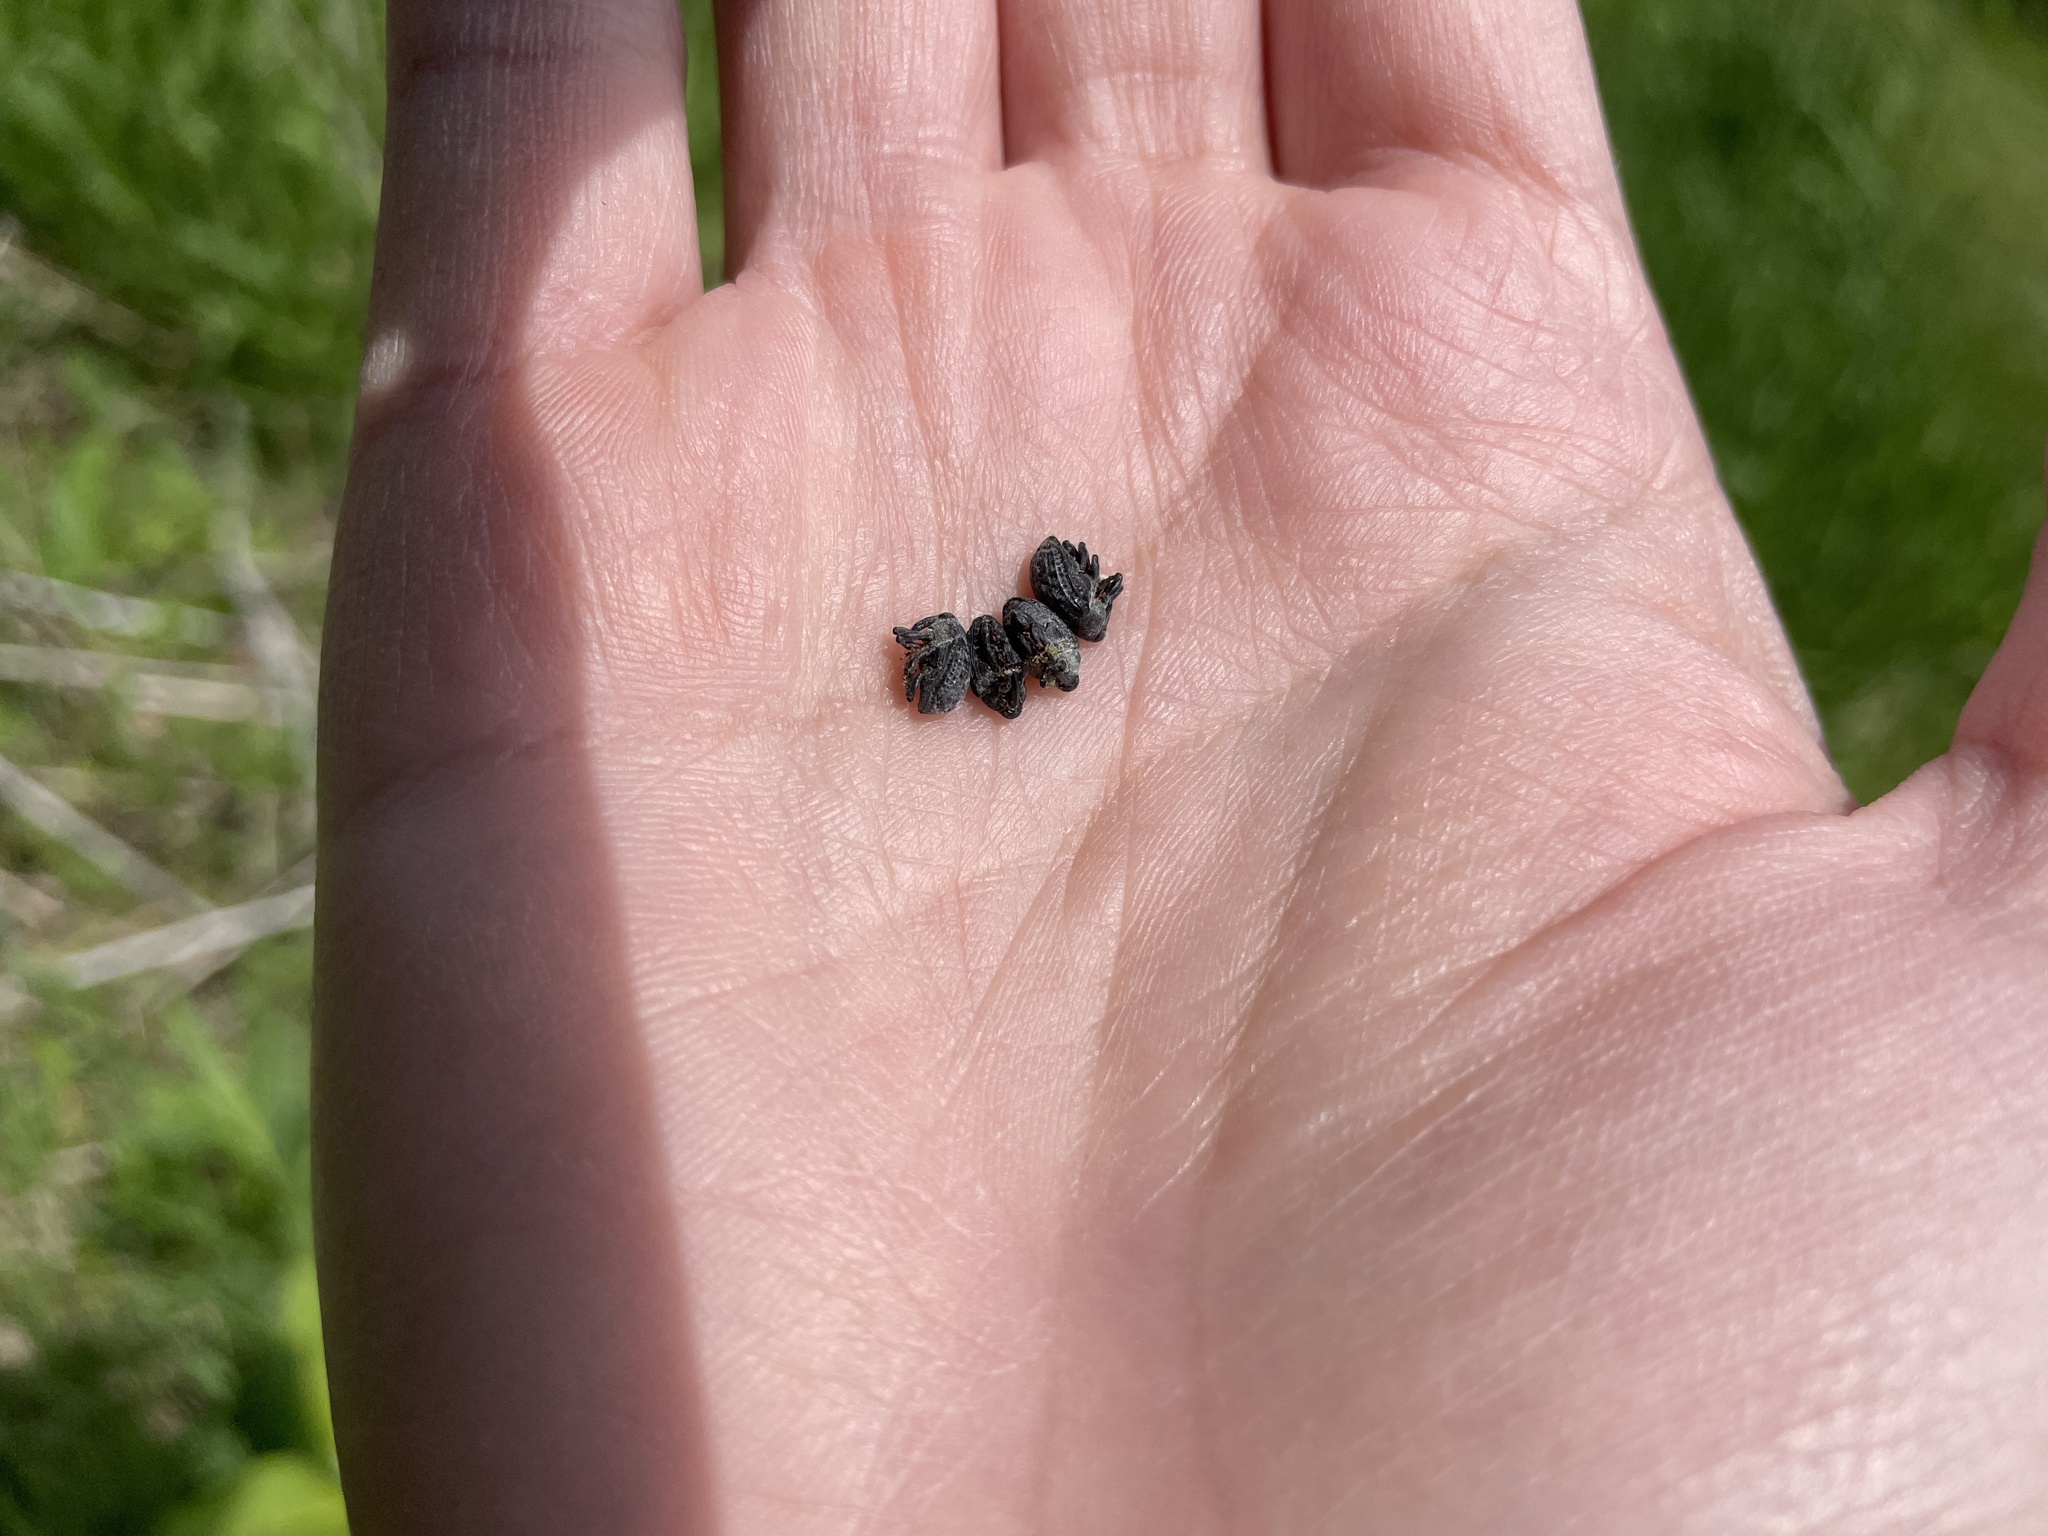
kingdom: Animalia
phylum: Arthropoda
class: Insecta
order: Coleoptera
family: Curculionidae
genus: Rhyssomatus
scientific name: Rhyssomatus lineaticollis
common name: Milkweed stem weevil
